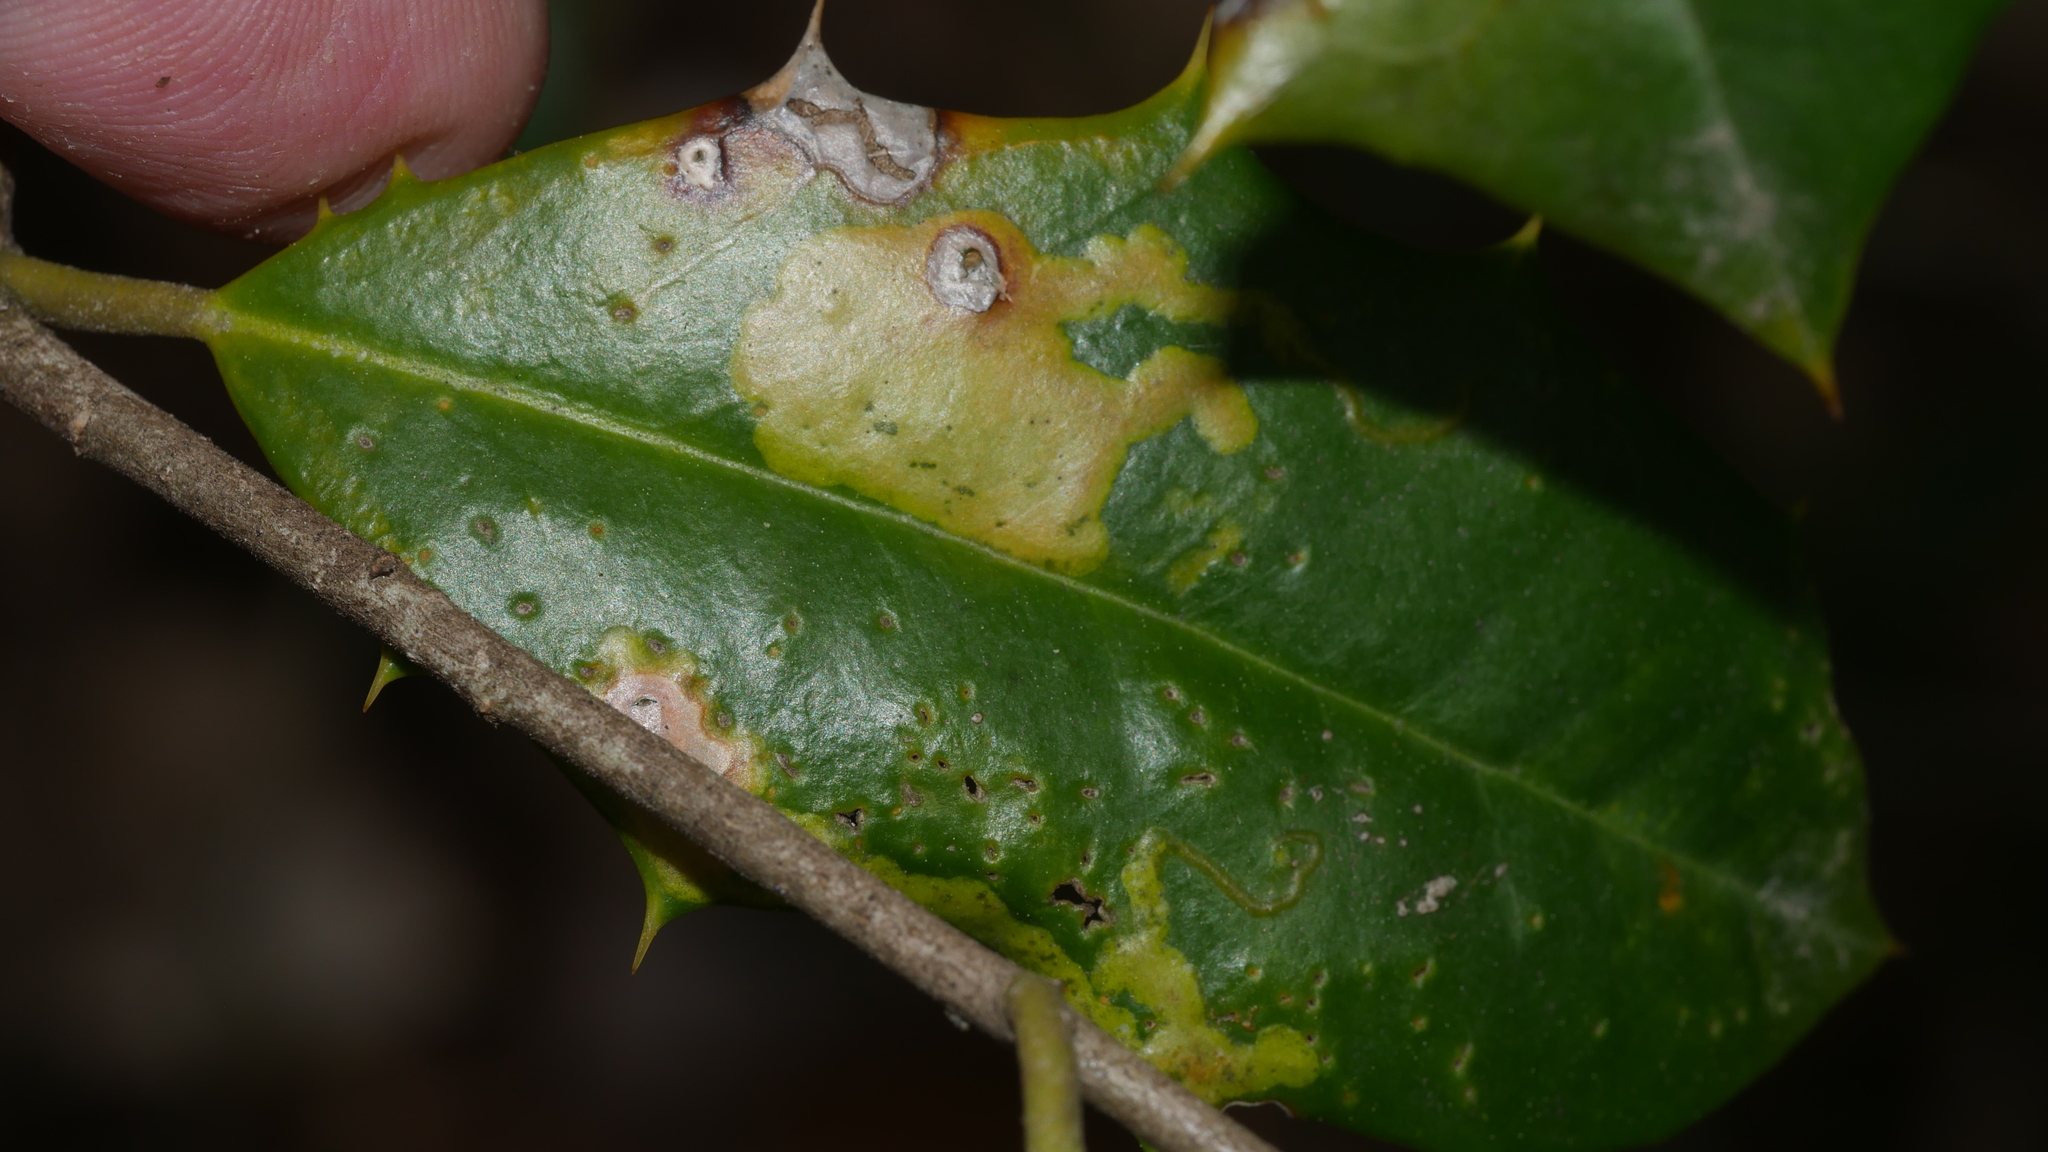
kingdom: Animalia
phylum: Arthropoda
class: Insecta
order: Diptera
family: Agromyzidae
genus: Phytomyza
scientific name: Phytomyza ilicicola
